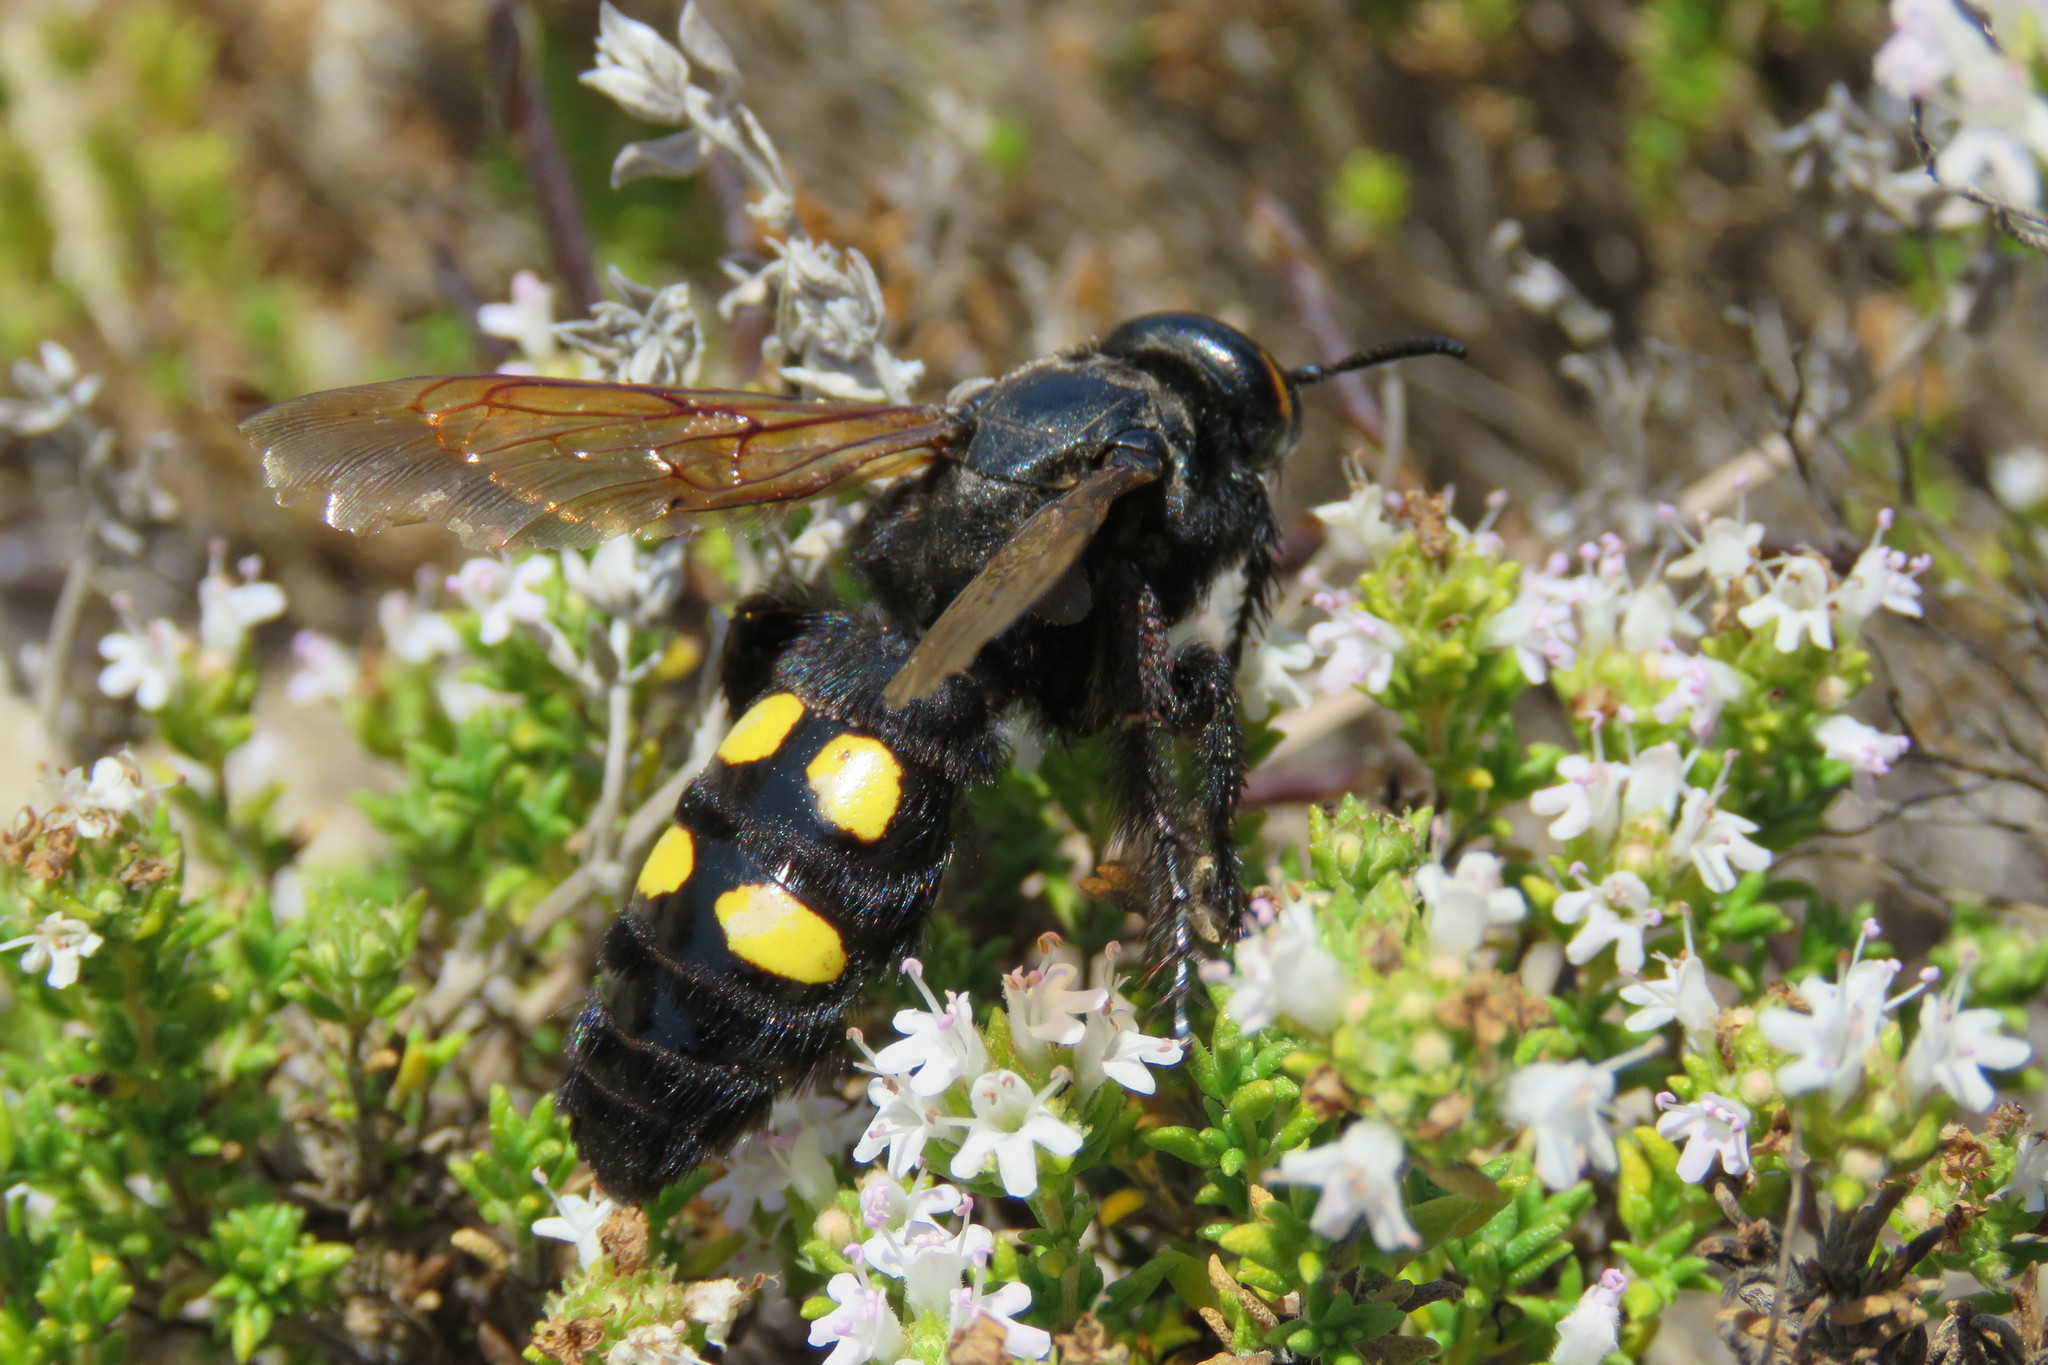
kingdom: Animalia
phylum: Arthropoda
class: Insecta
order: Hymenoptera
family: Scoliidae
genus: Megascolia
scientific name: Megascolia maculata
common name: Mammoth wasp
